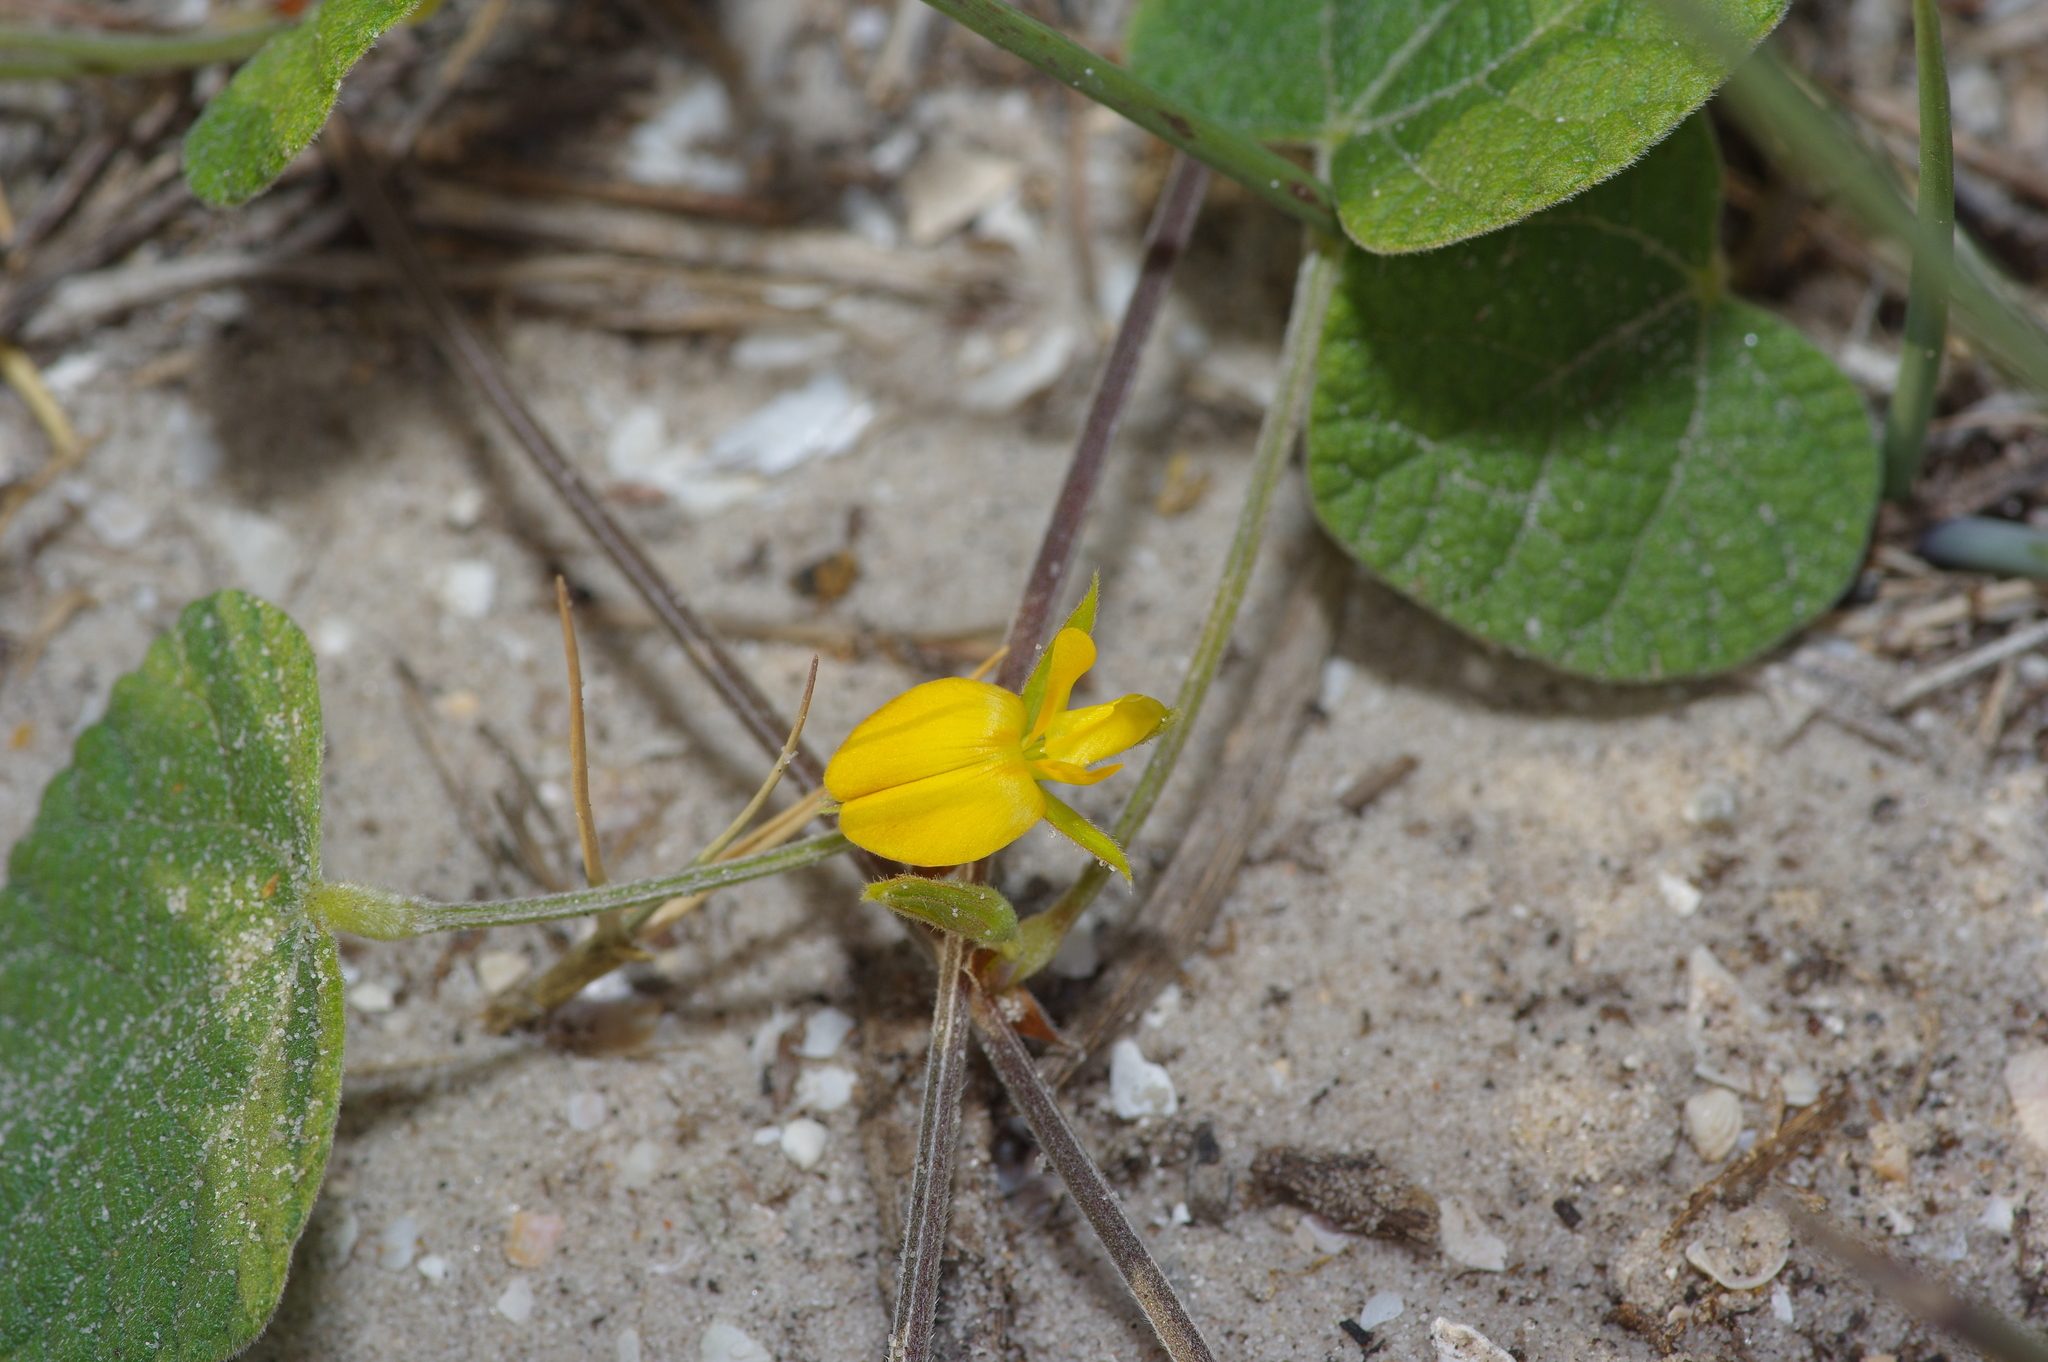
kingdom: Plantae
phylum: Tracheophyta
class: Magnoliopsida
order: Fabales
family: Fabaceae
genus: Rhynchosia
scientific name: Rhynchosia americana
